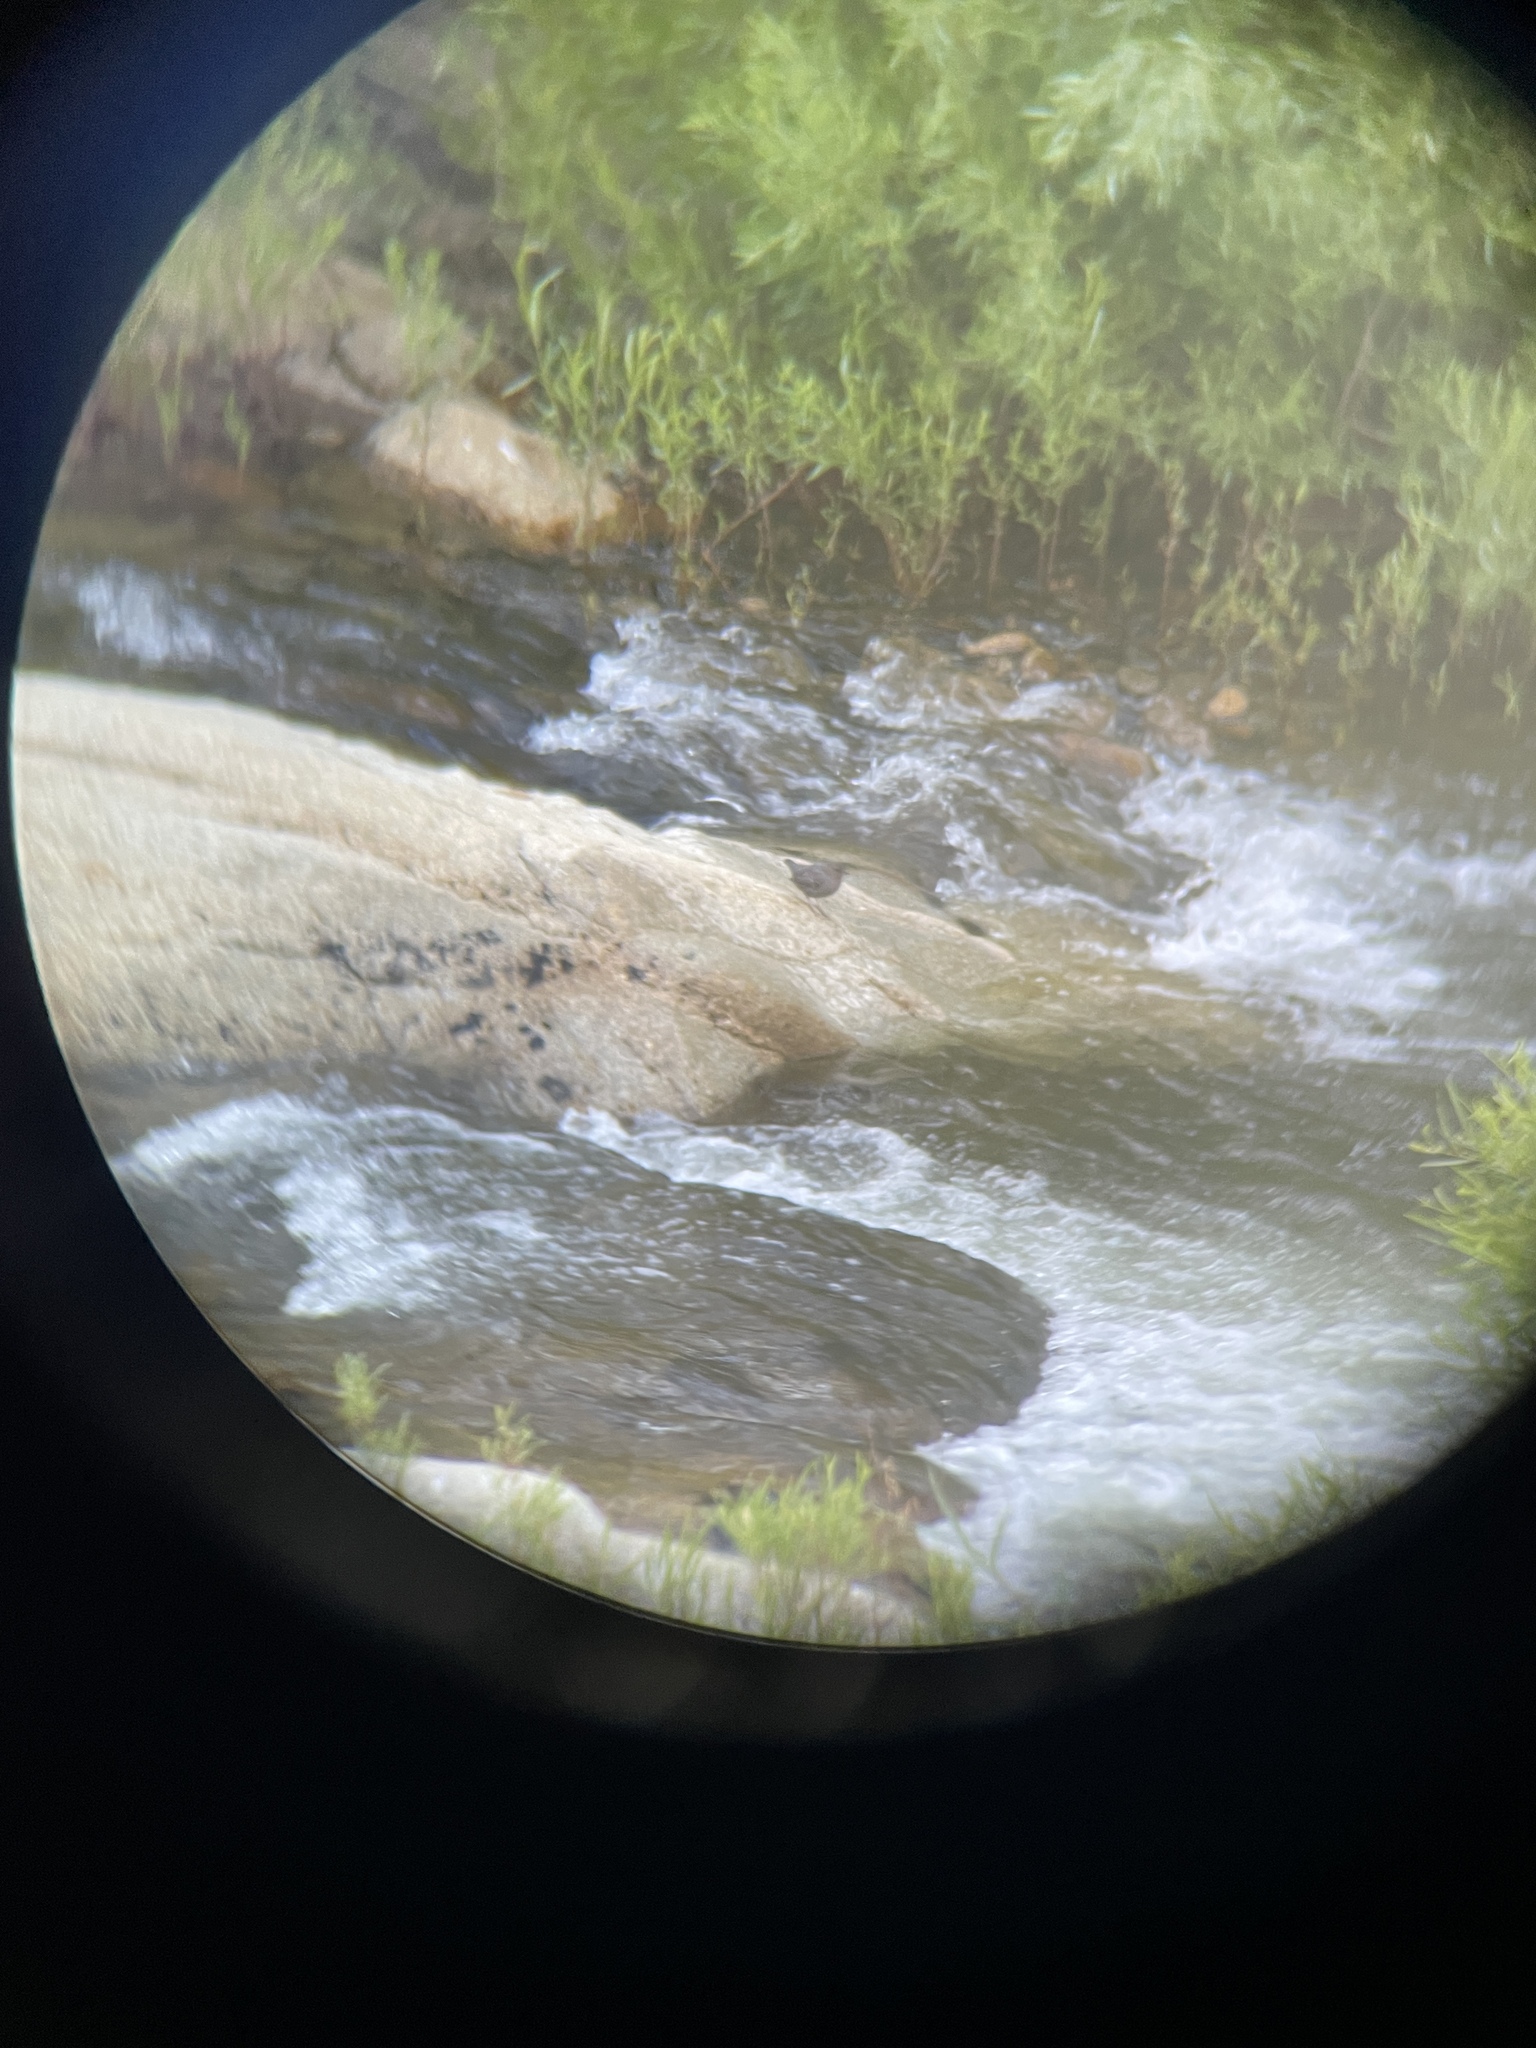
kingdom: Animalia
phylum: Chordata
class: Aves
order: Passeriformes
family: Cinclidae
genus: Cinclus
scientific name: Cinclus mexicanus
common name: American dipper
